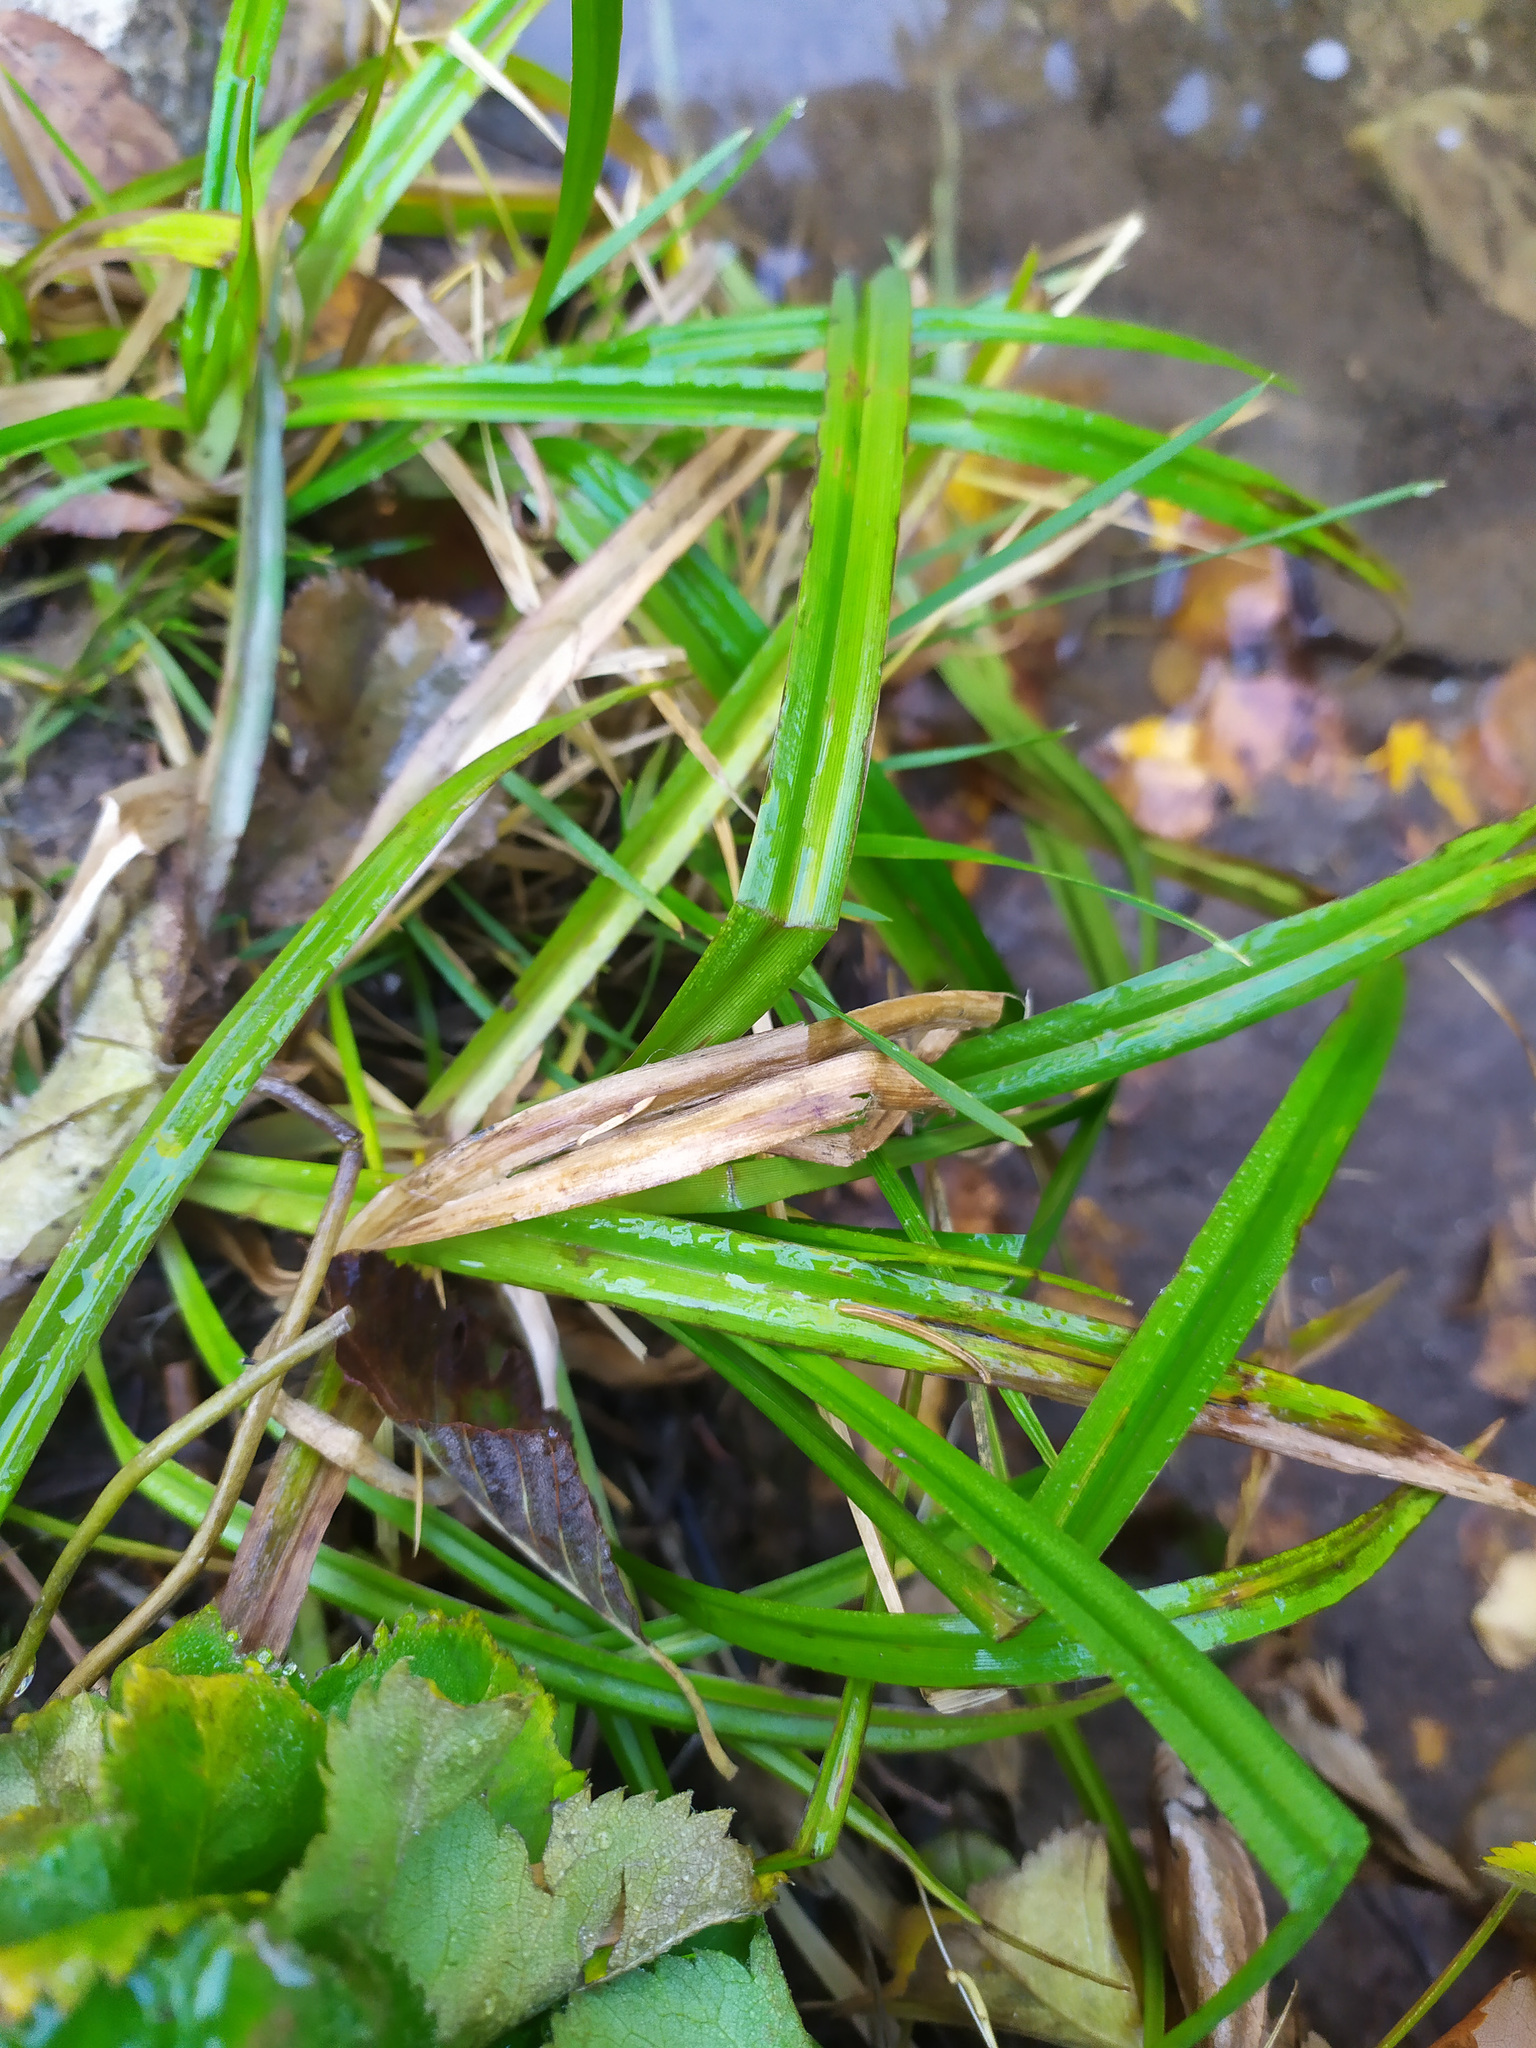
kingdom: Plantae
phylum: Tracheophyta
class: Liliopsida
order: Poales
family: Cyperaceae
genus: Scirpus
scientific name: Scirpus sylvaticus
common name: Wood club-rush
